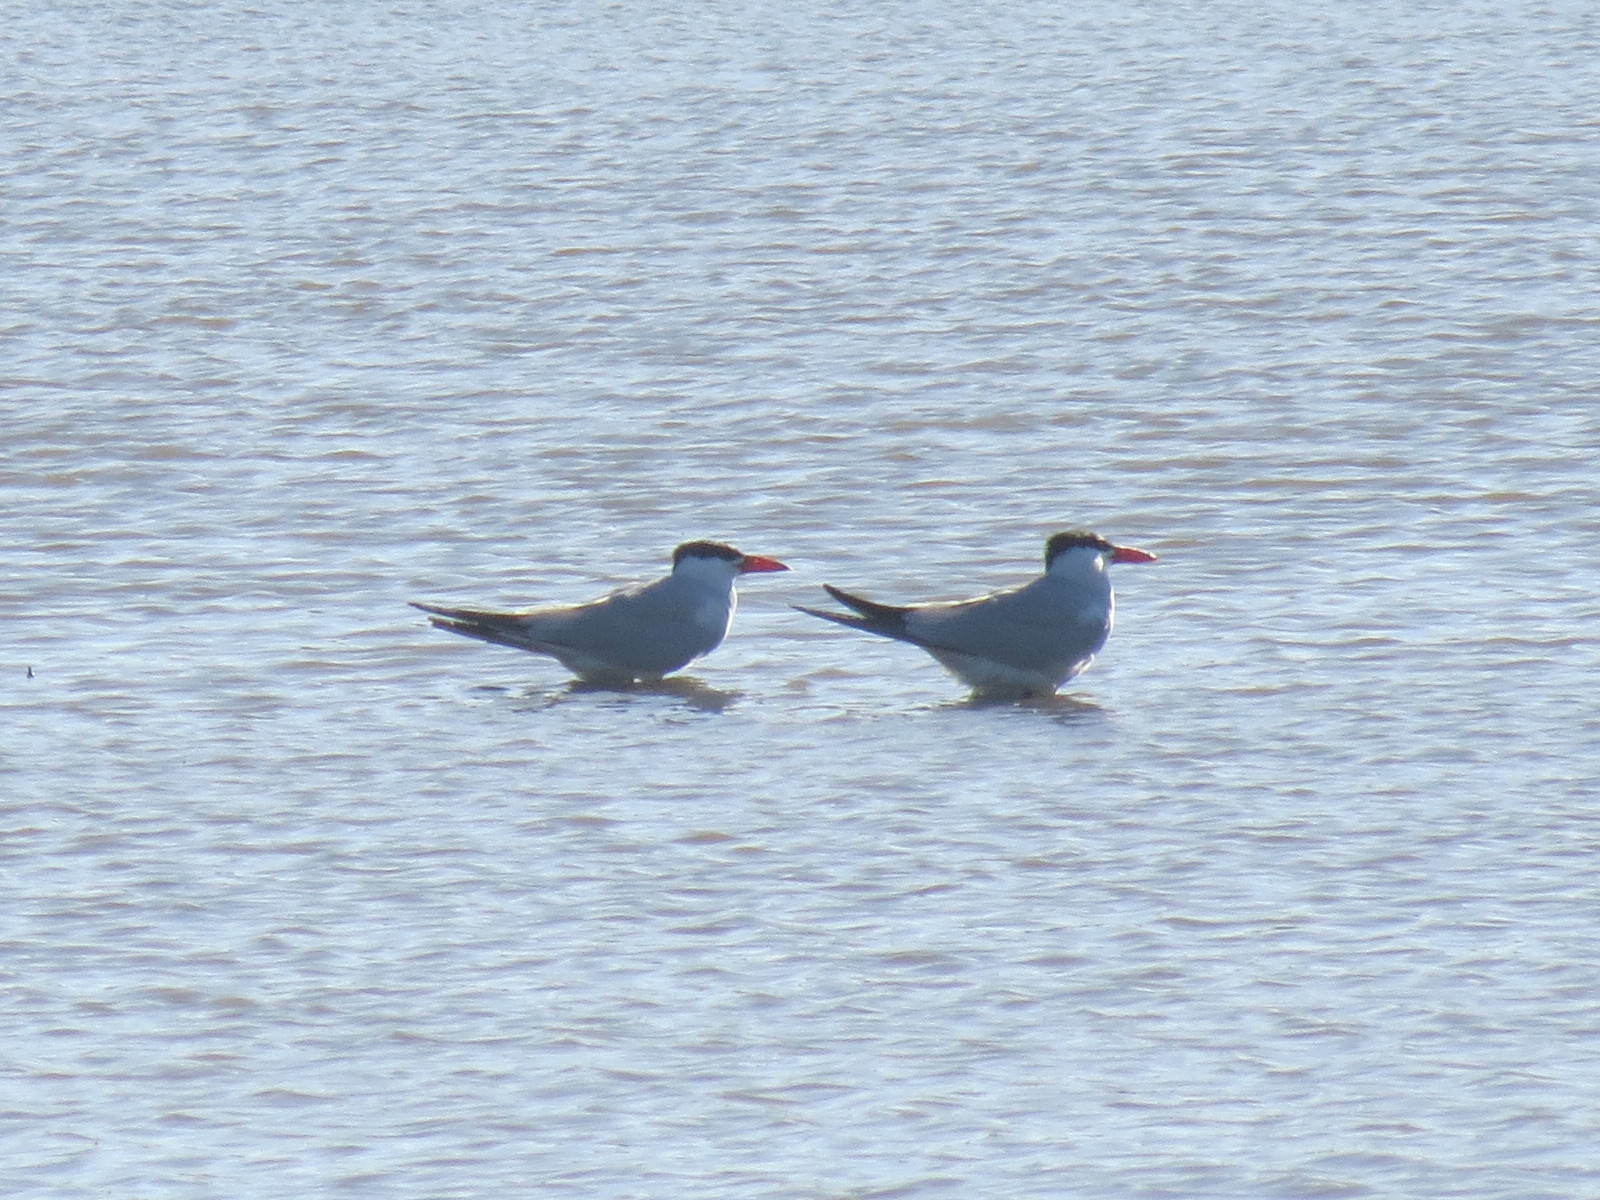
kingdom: Animalia
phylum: Chordata
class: Aves
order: Charadriiformes
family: Laridae
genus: Hydroprogne
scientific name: Hydroprogne caspia
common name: Caspian tern
